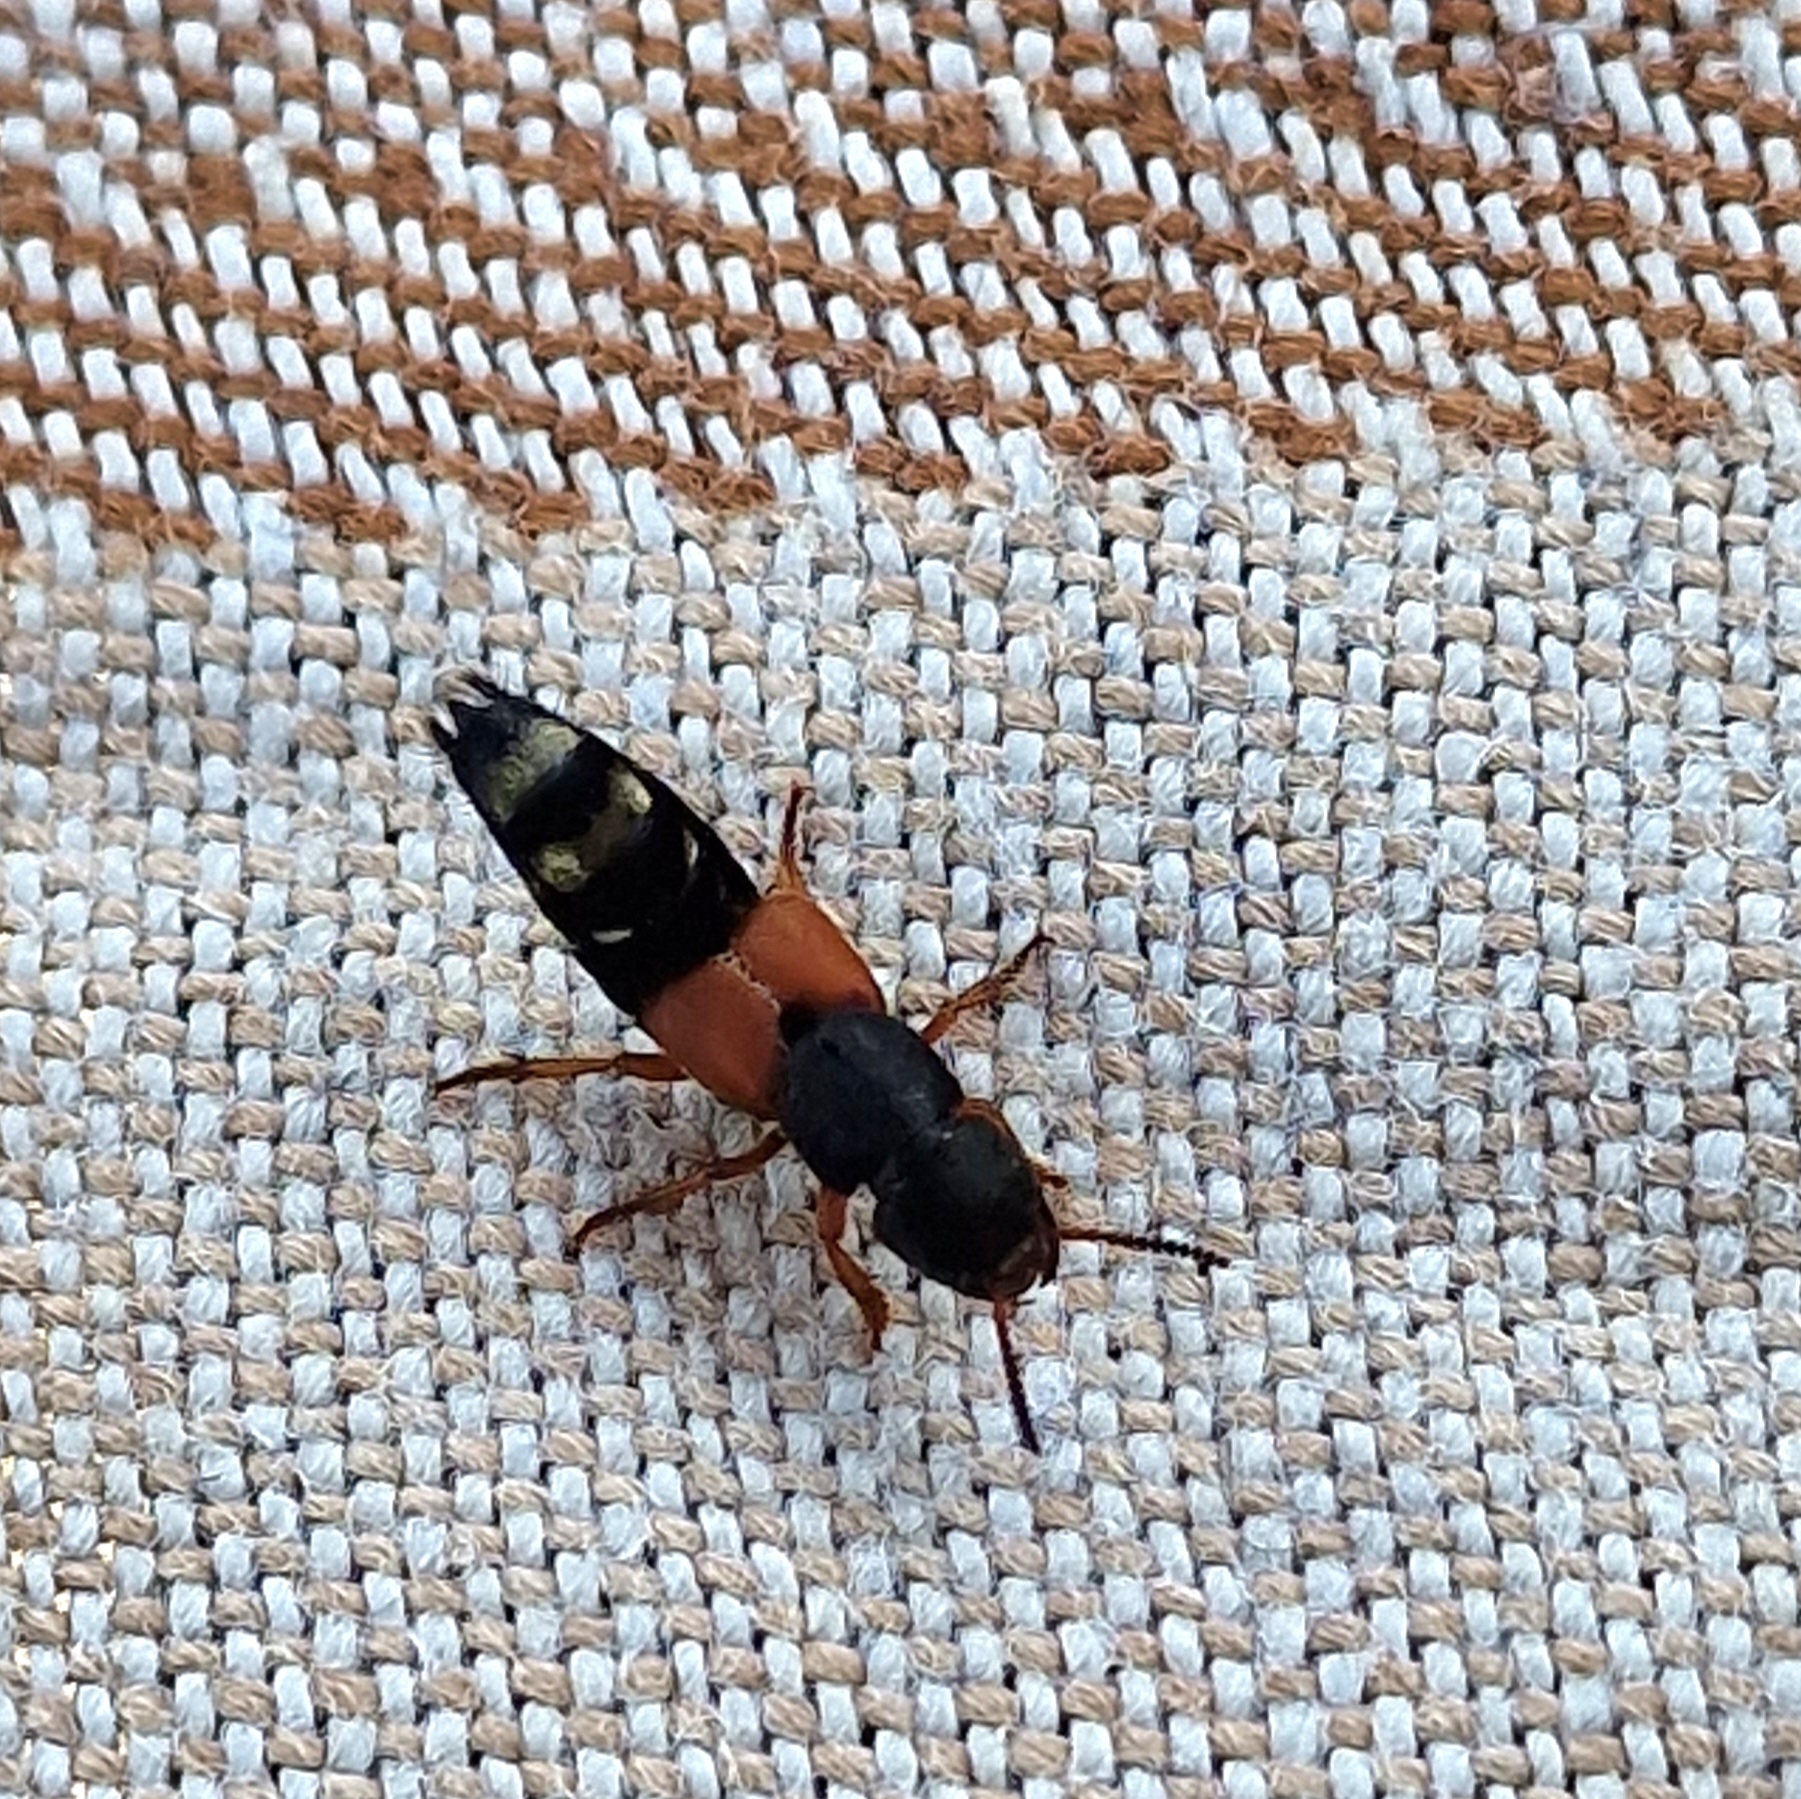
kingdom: Animalia
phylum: Arthropoda
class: Insecta
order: Coleoptera
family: Staphylinidae
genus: Platydracus
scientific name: Platydracus stercorarius
